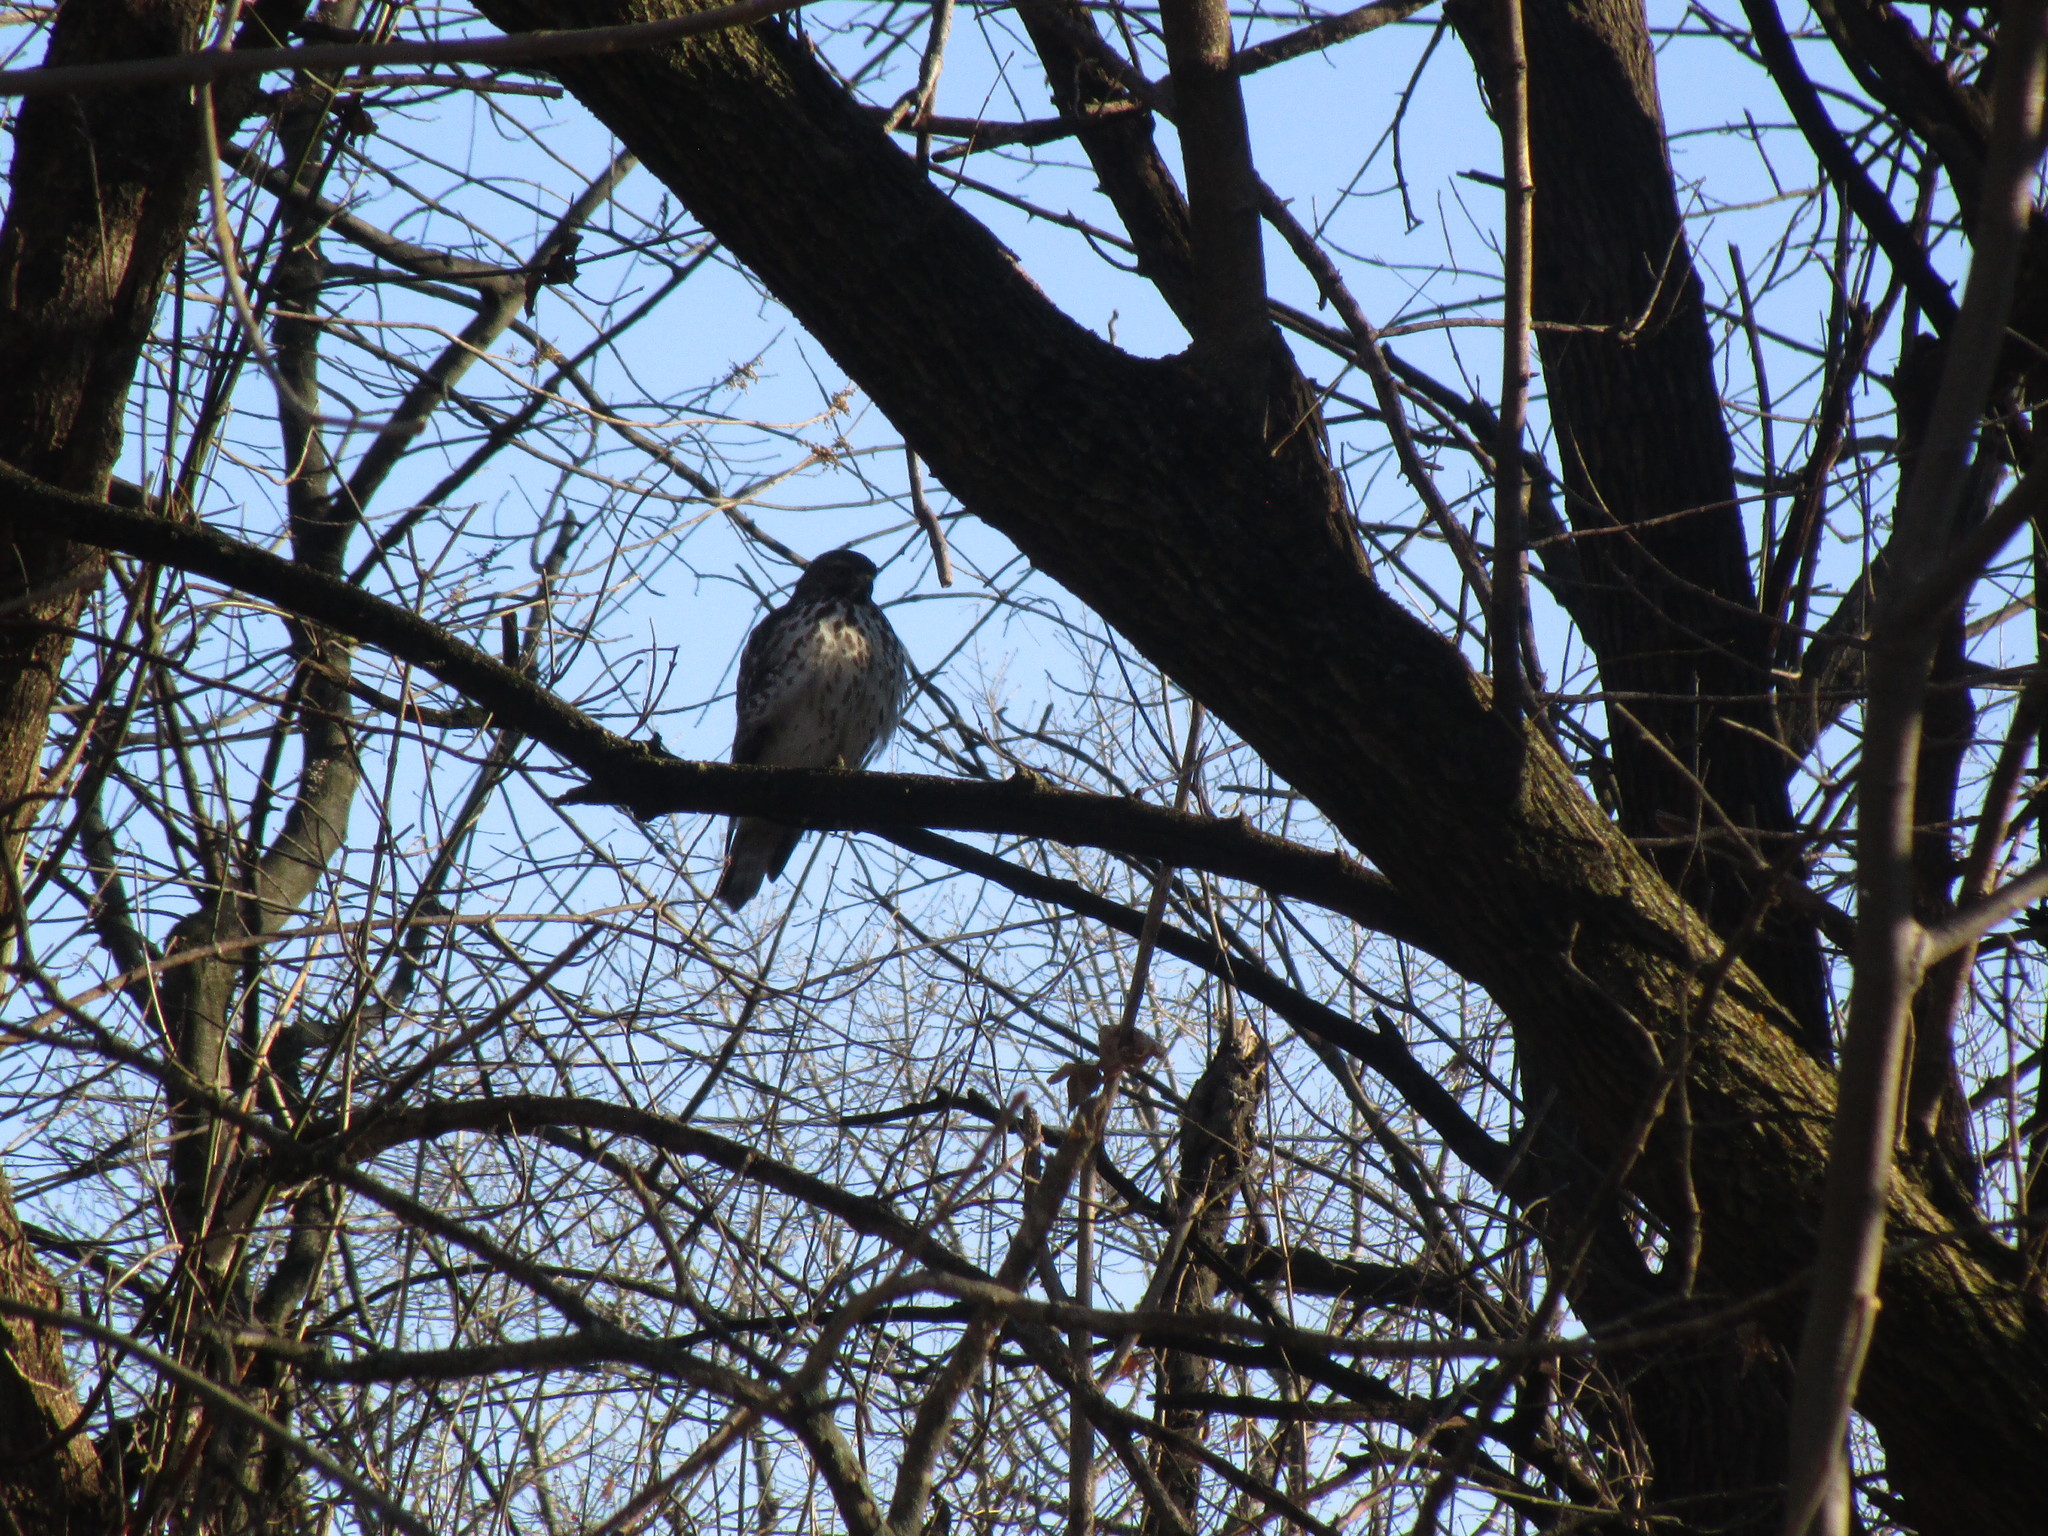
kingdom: Animalia
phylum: Chordata
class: Aves
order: Accipitriformes
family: Accipitridae
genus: Buteo
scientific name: Buteo lineatus
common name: Red-shouldered hawk
